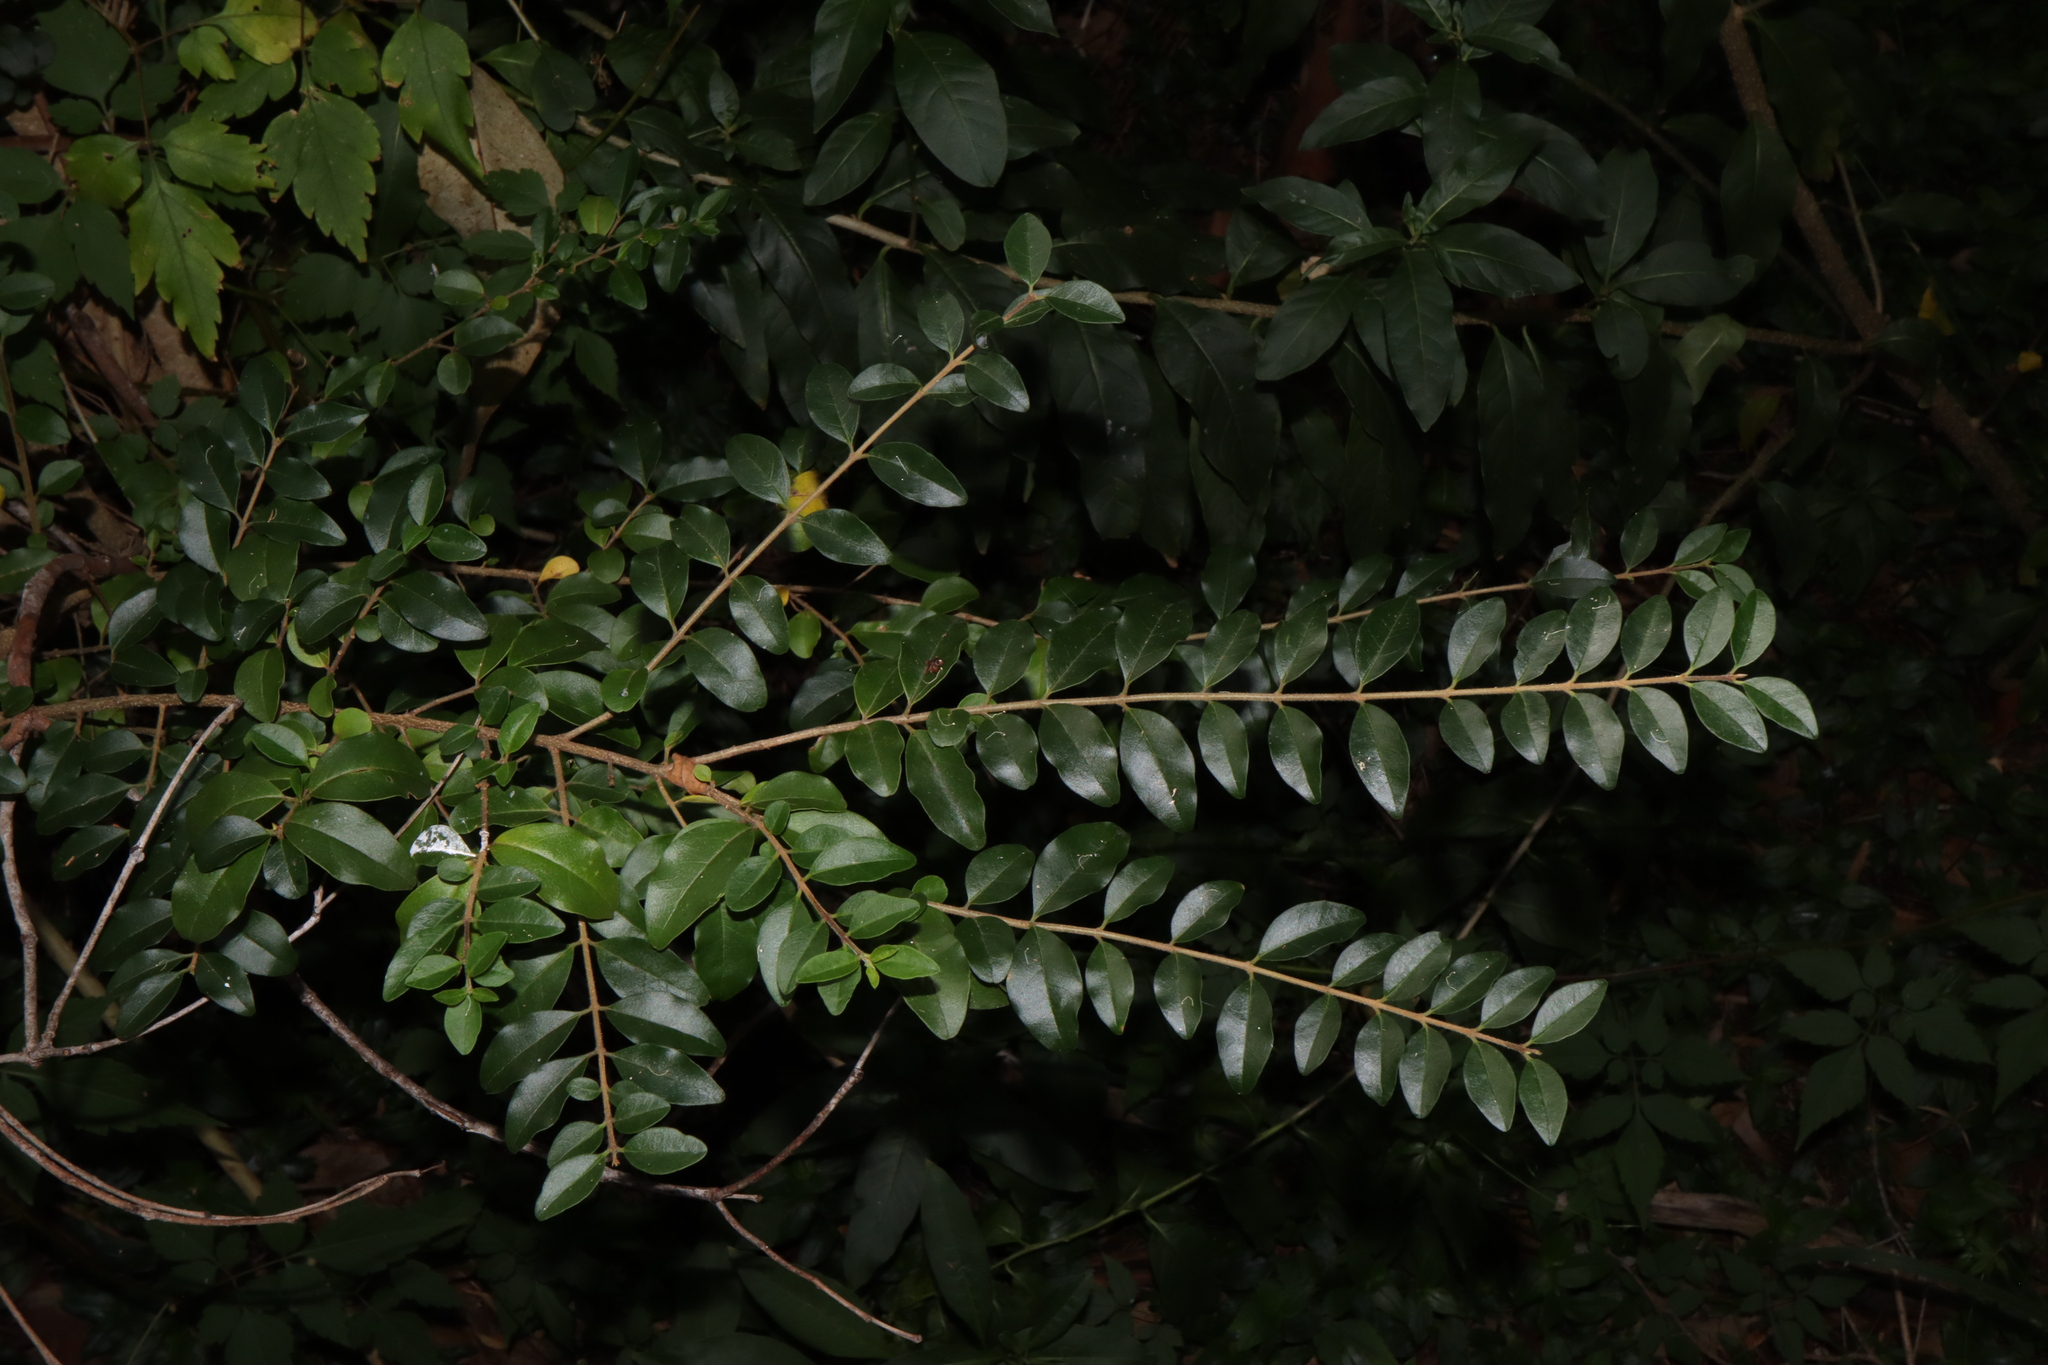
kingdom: Plantae
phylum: Tracheophyta
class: Magnoliopsida
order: Lamiales
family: Oleaceae
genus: Ligustrum
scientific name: Ligustrum sinense
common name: Chinese privet
